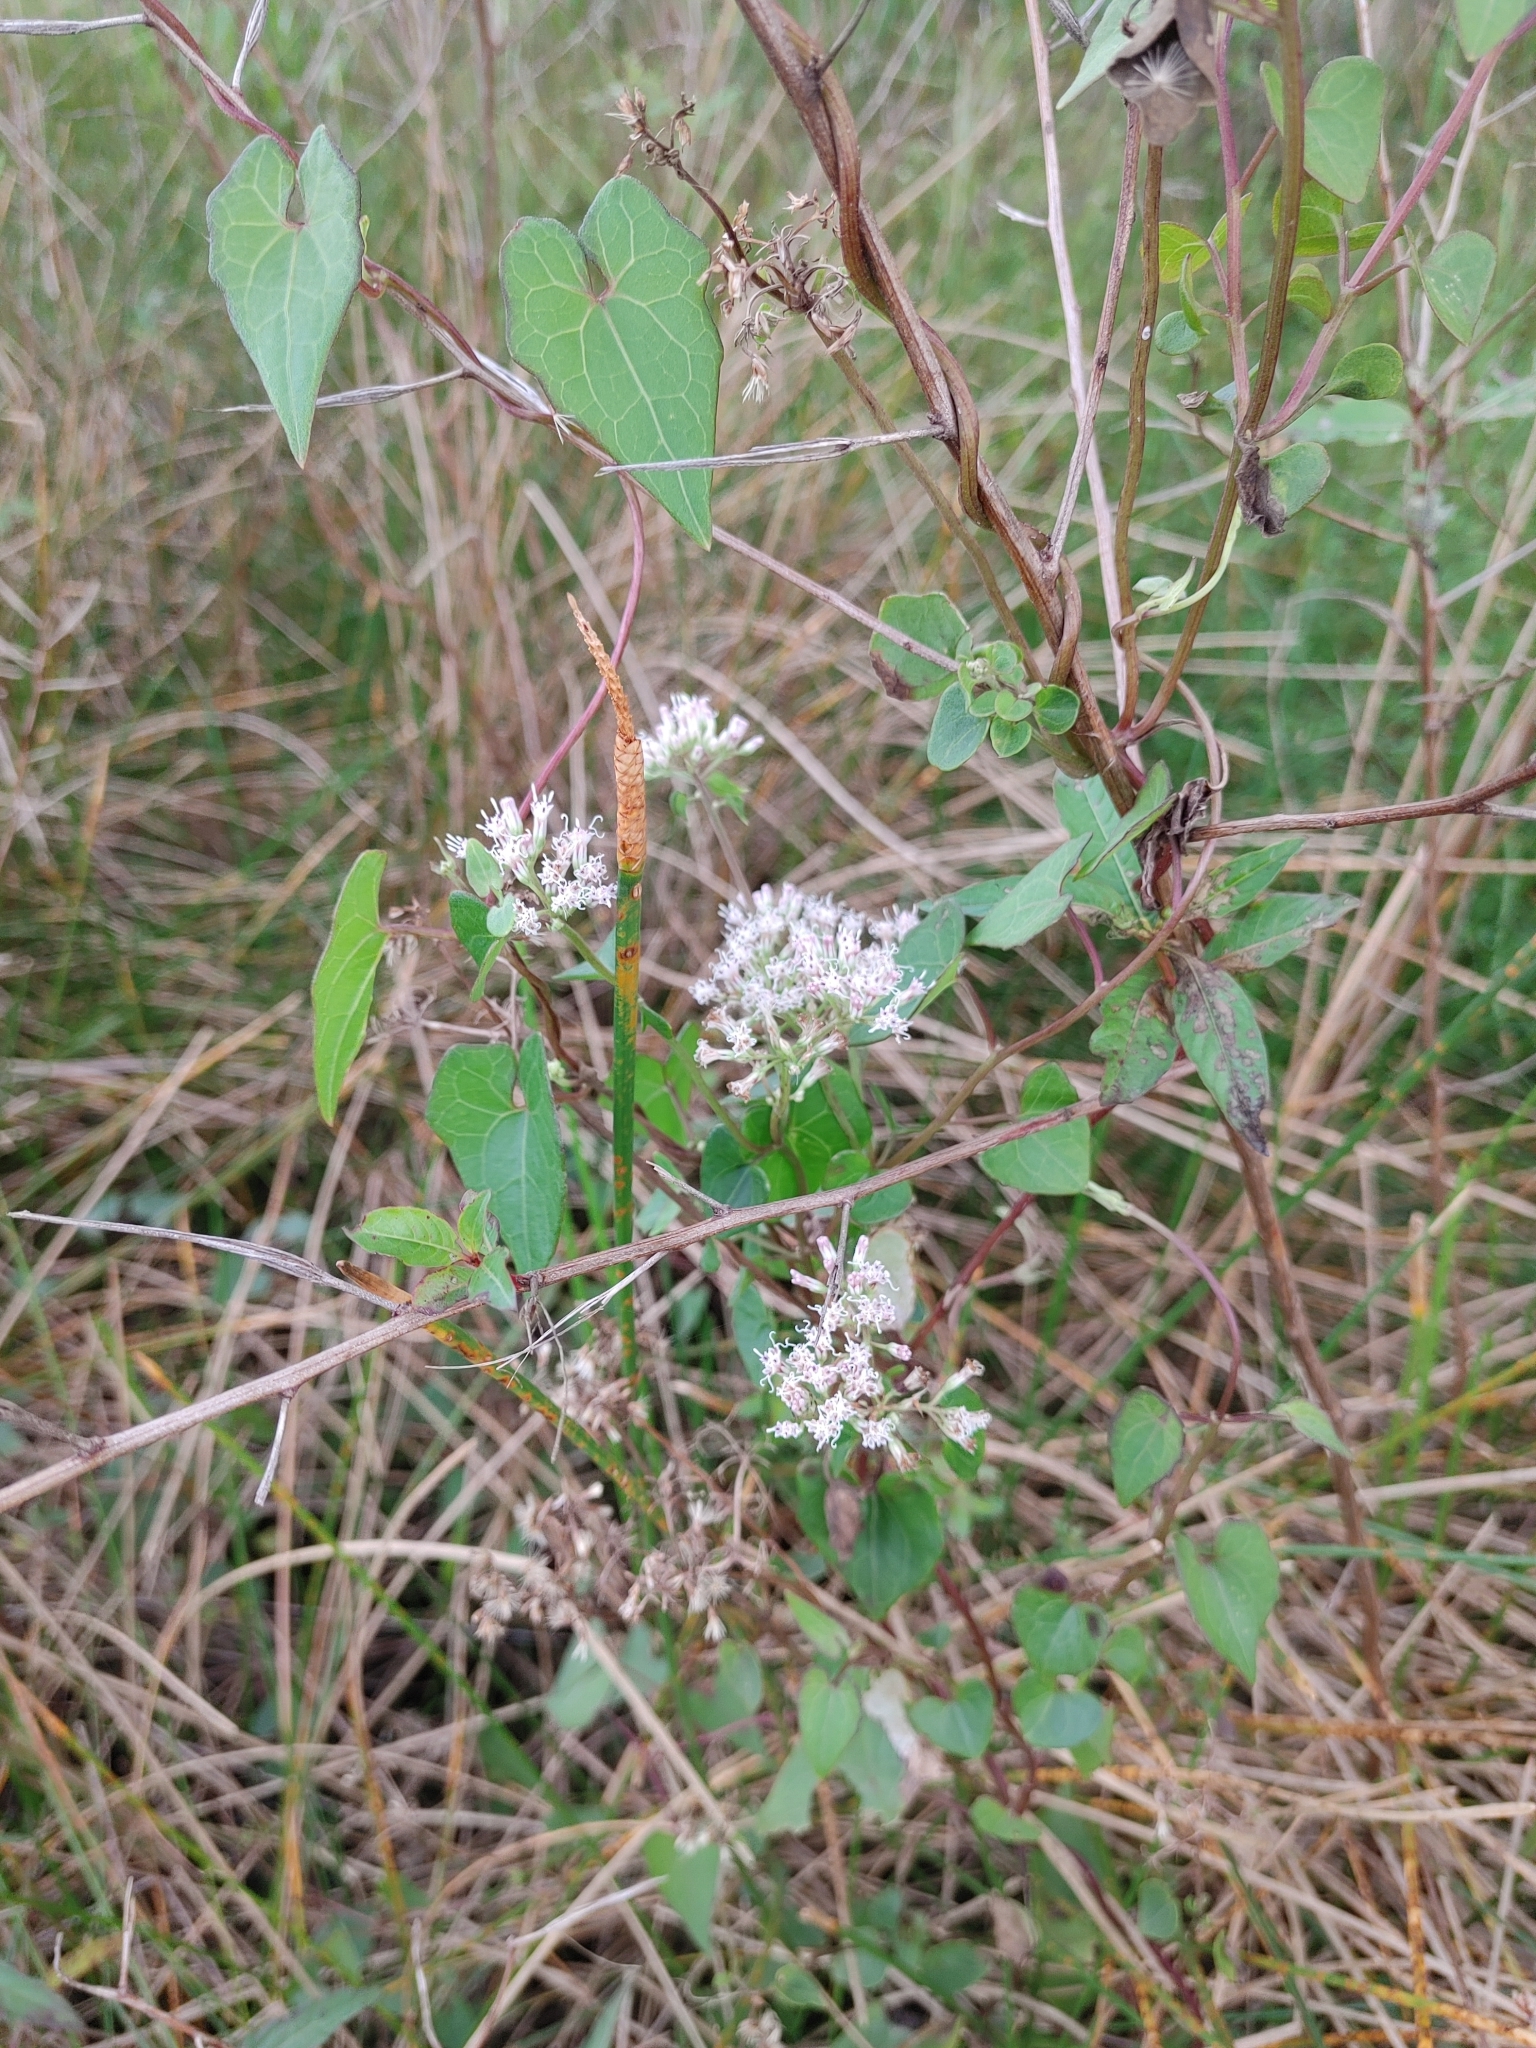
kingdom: Plantae
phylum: Tracheophyta
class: Magnoliopsida
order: Asterales
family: Asteraceae
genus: Mikania
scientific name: Mikania scandens
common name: Climbing hempvine
